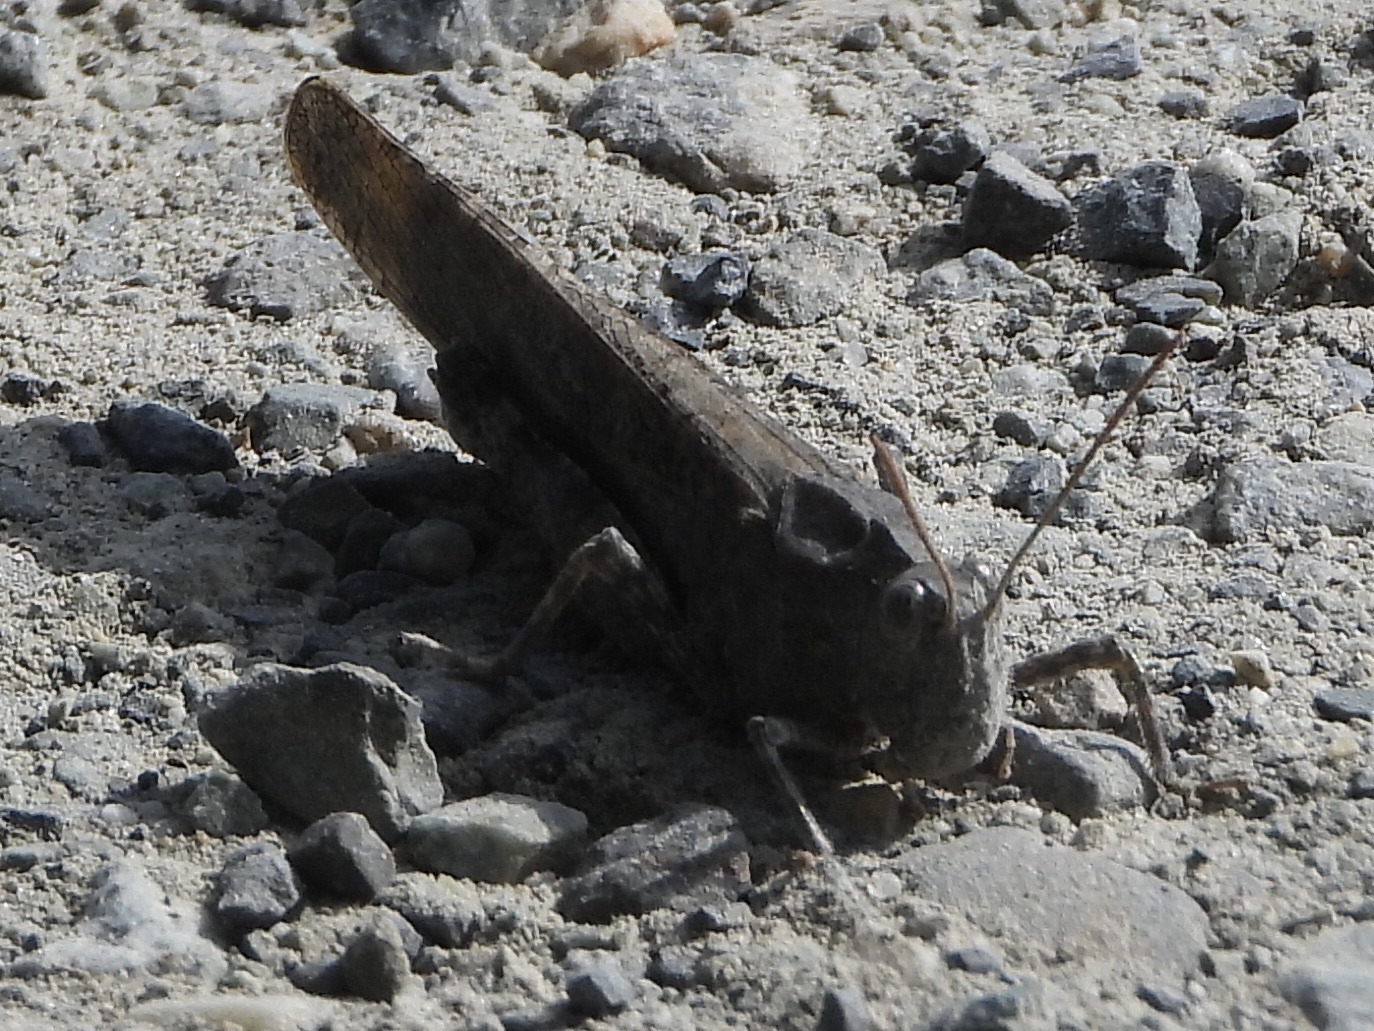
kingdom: Animalia
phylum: Arthropoda
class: Insecta
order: Orthoptera
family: Acrididae
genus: Dissosteira
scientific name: Dissosteira carolina
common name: Carolina grasshopper
